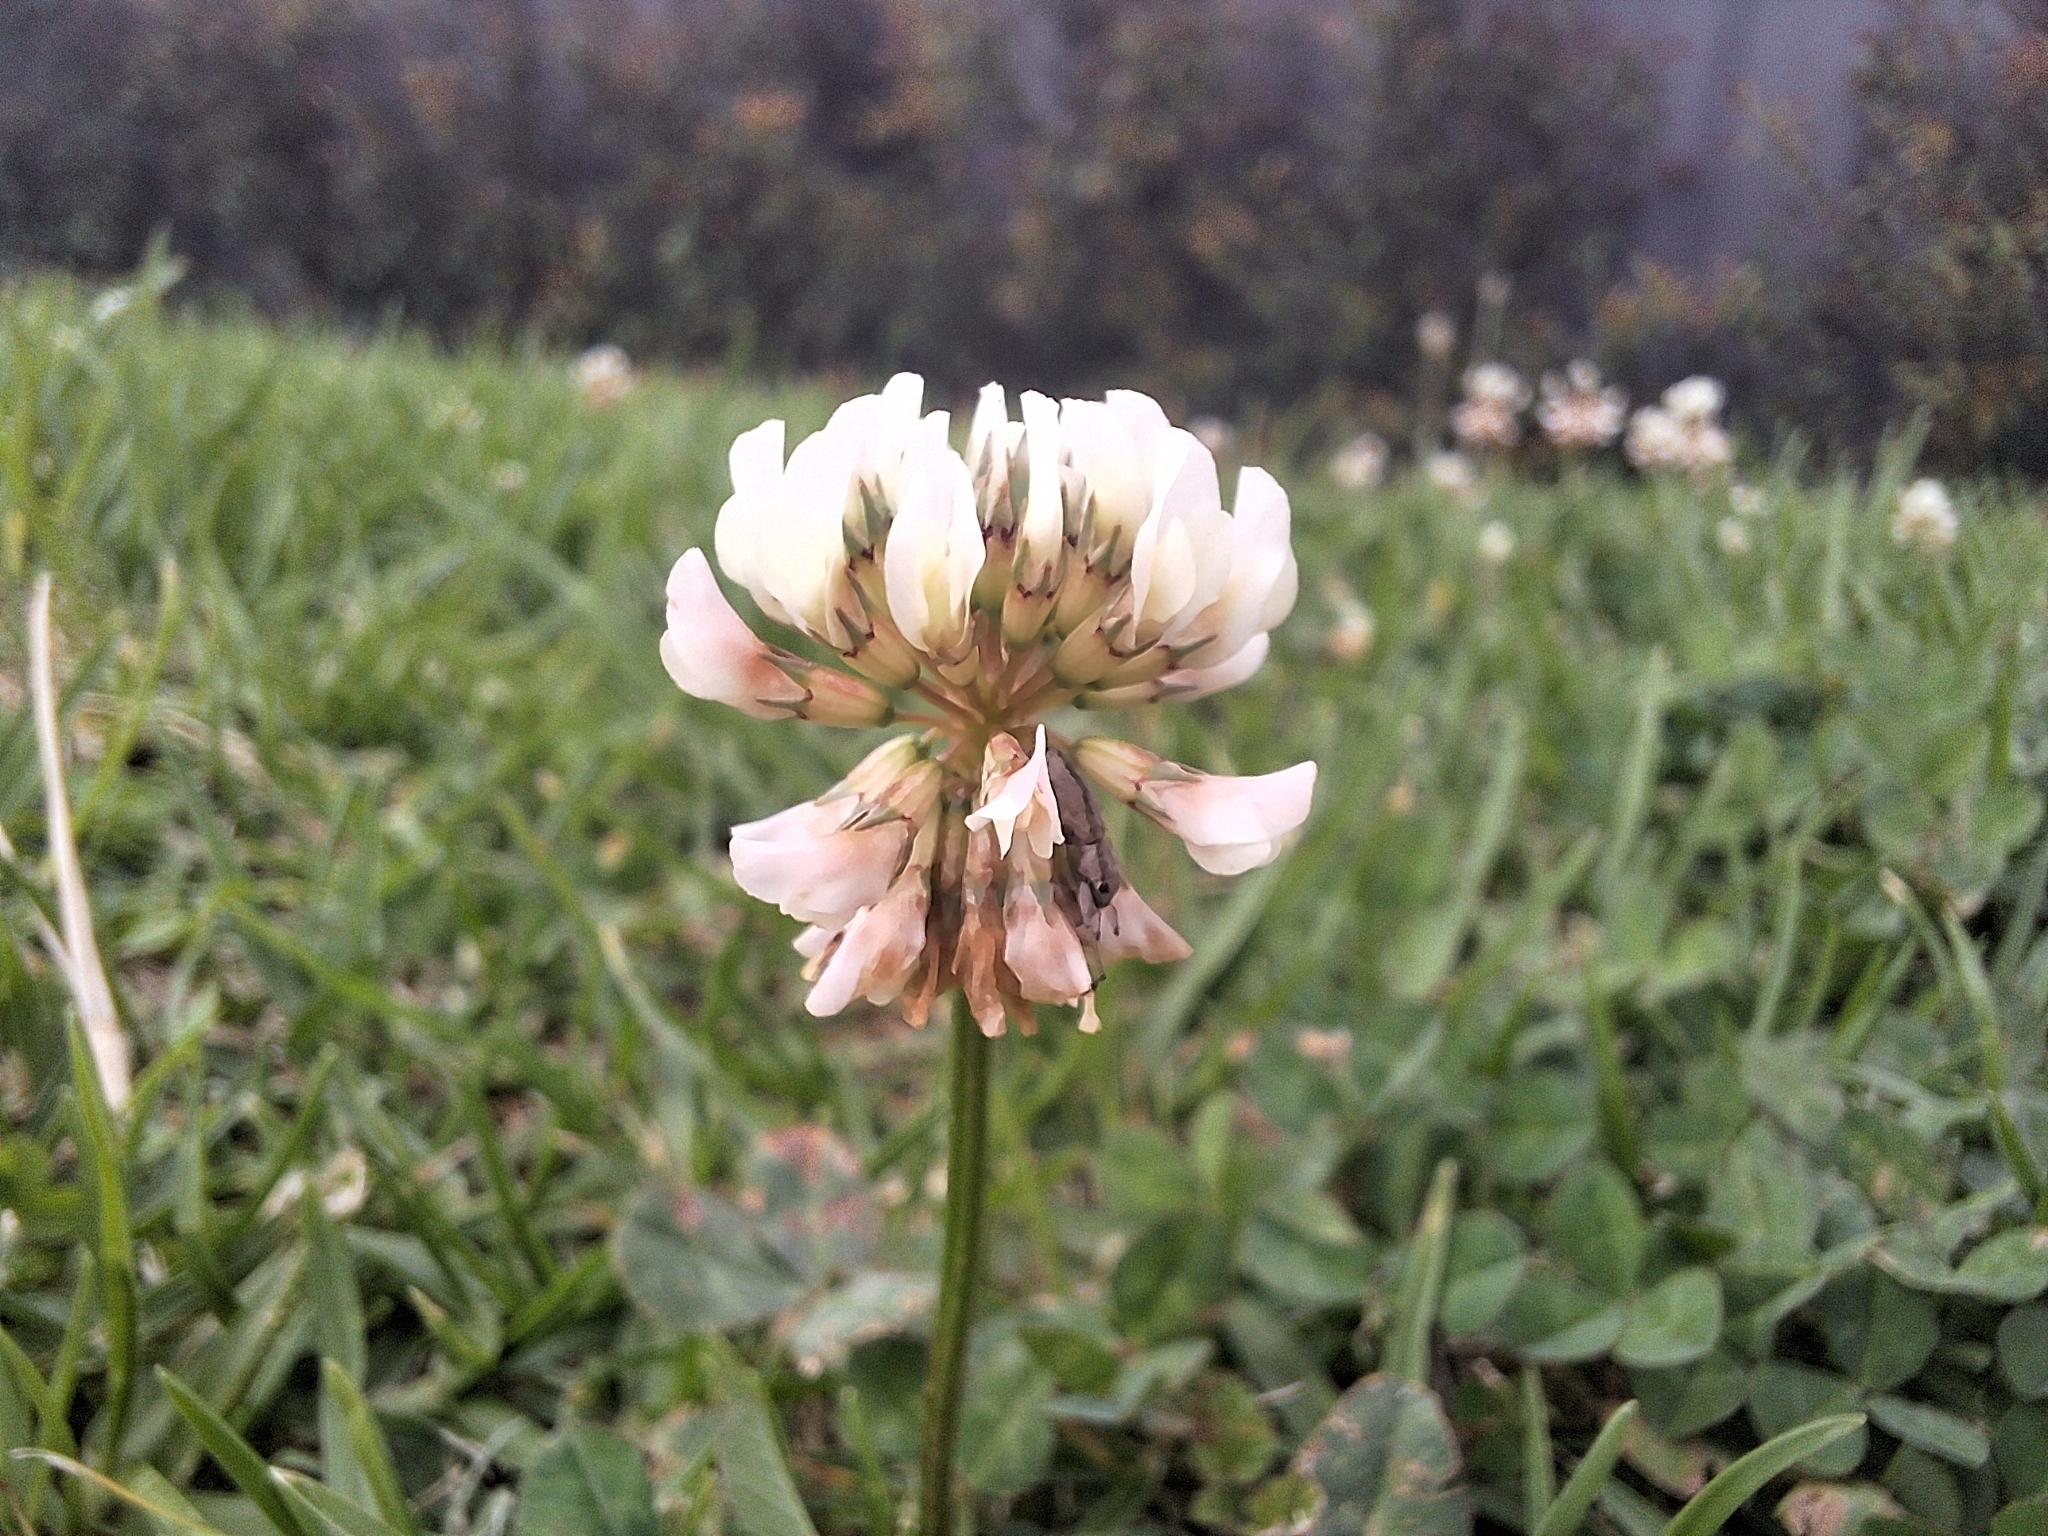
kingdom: Plantae
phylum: Tracheophyta
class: Magnoliopsida
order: Fabales
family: Fabaceae
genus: Trifolium
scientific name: Trifolium repens
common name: White clover
